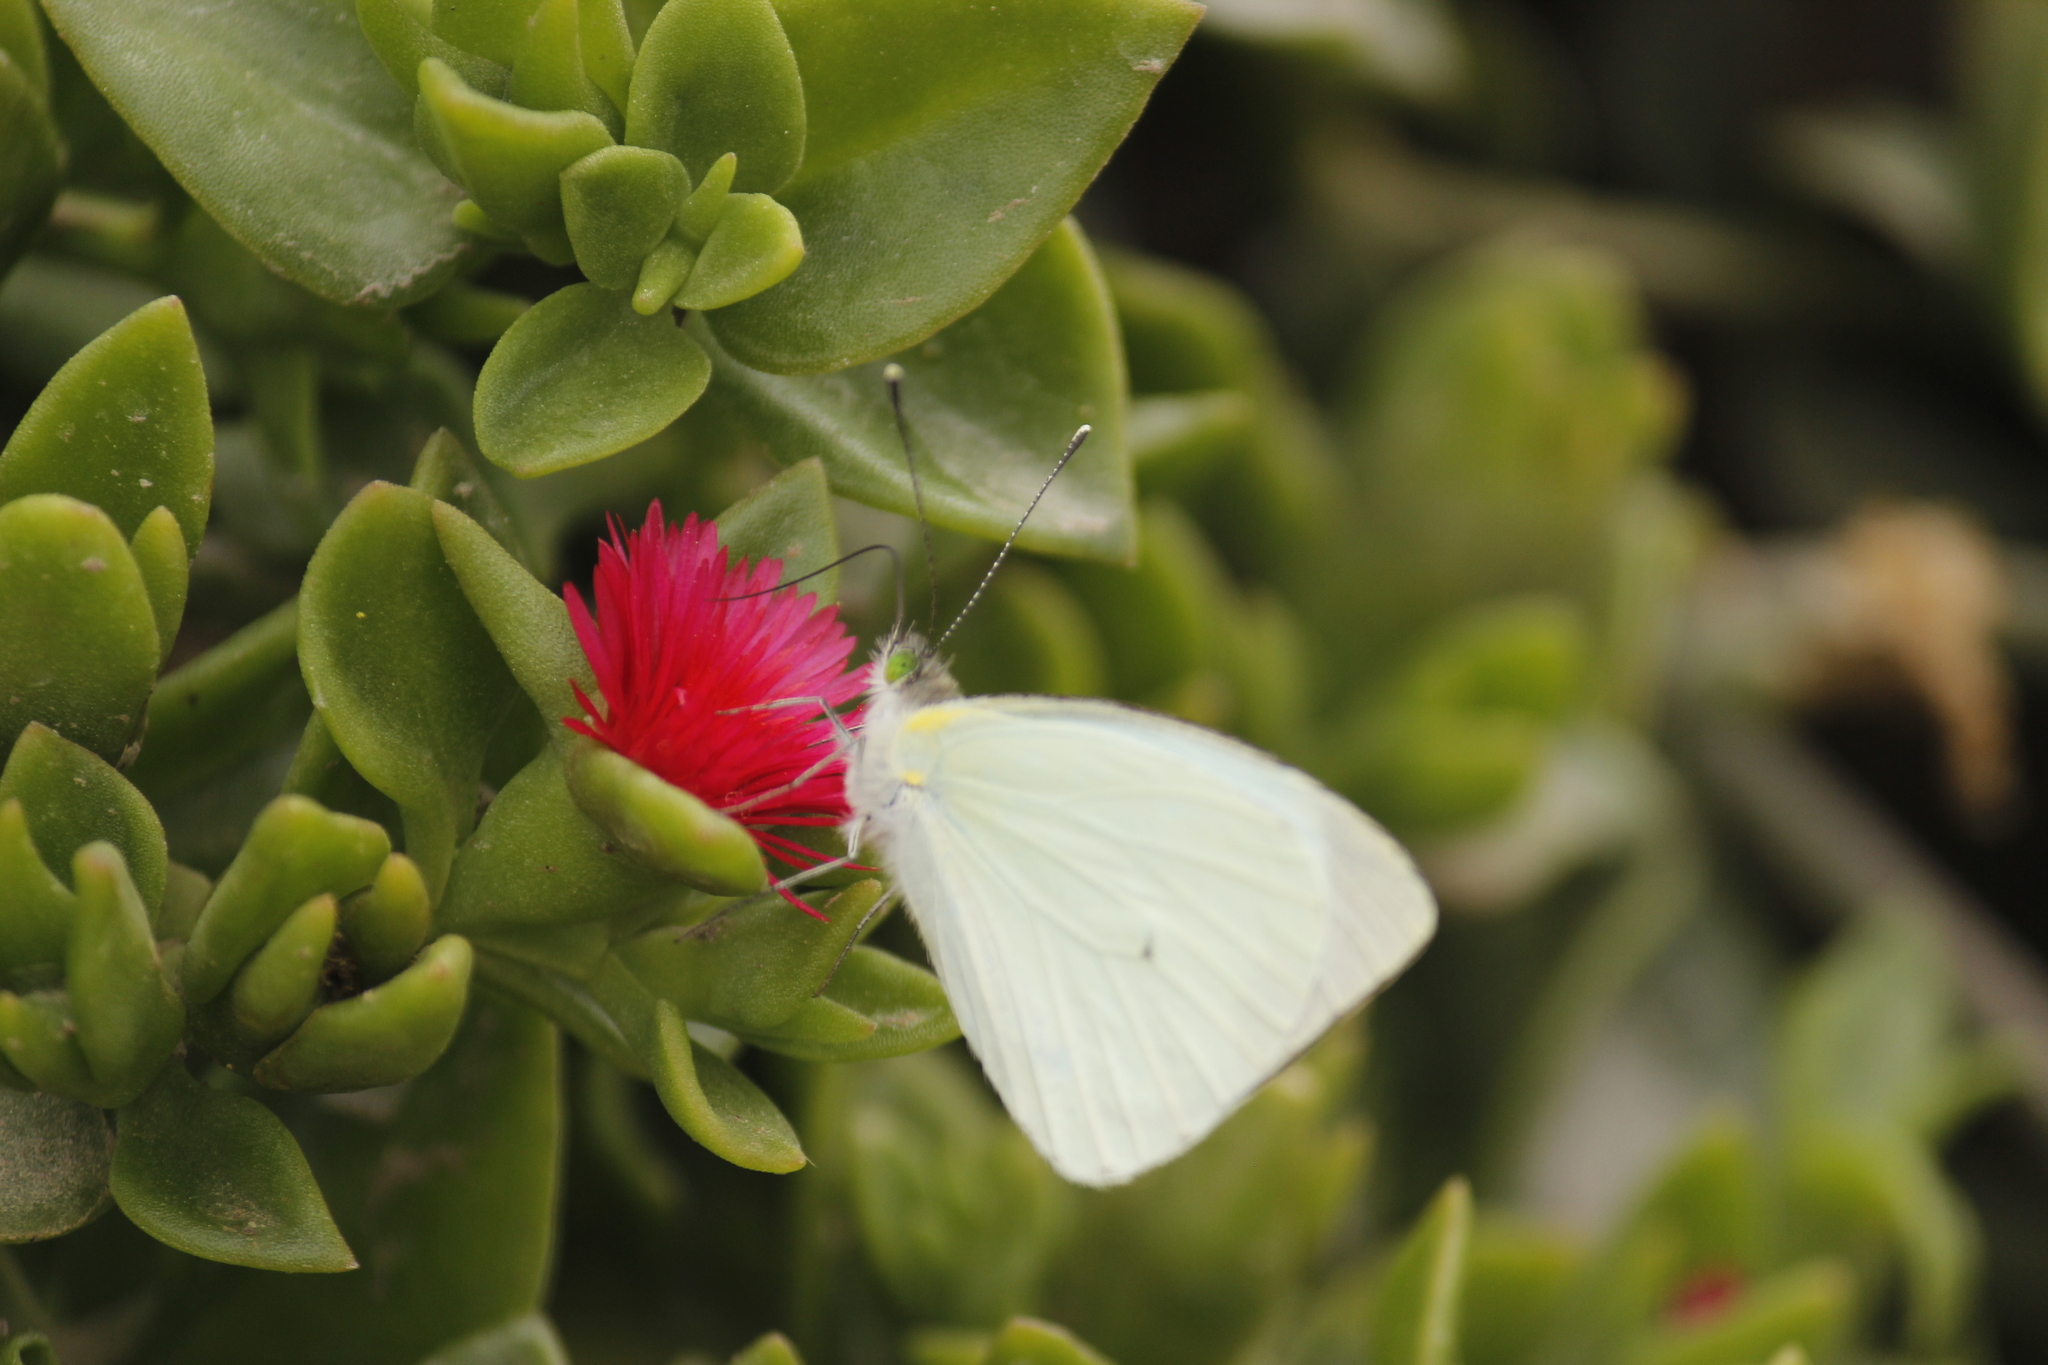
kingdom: Animalia
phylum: Arthropoda
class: Insecta
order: Lepidoptera
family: Pieridae
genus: Leptophobia
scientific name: Leptophobia aripa
